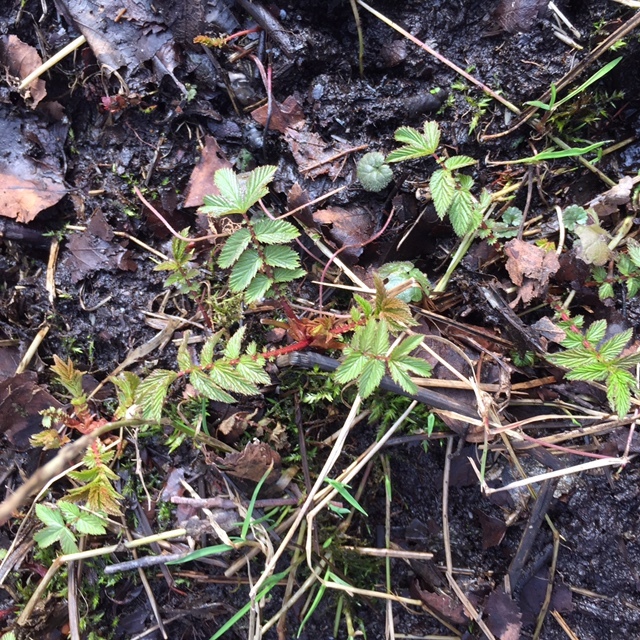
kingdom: Plantae
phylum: Tracheophyta
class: Magnoliopsida
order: Rosales
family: Rosaceae
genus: Filipendula
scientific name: Filipendula ulmaria
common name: Meadowsweet
